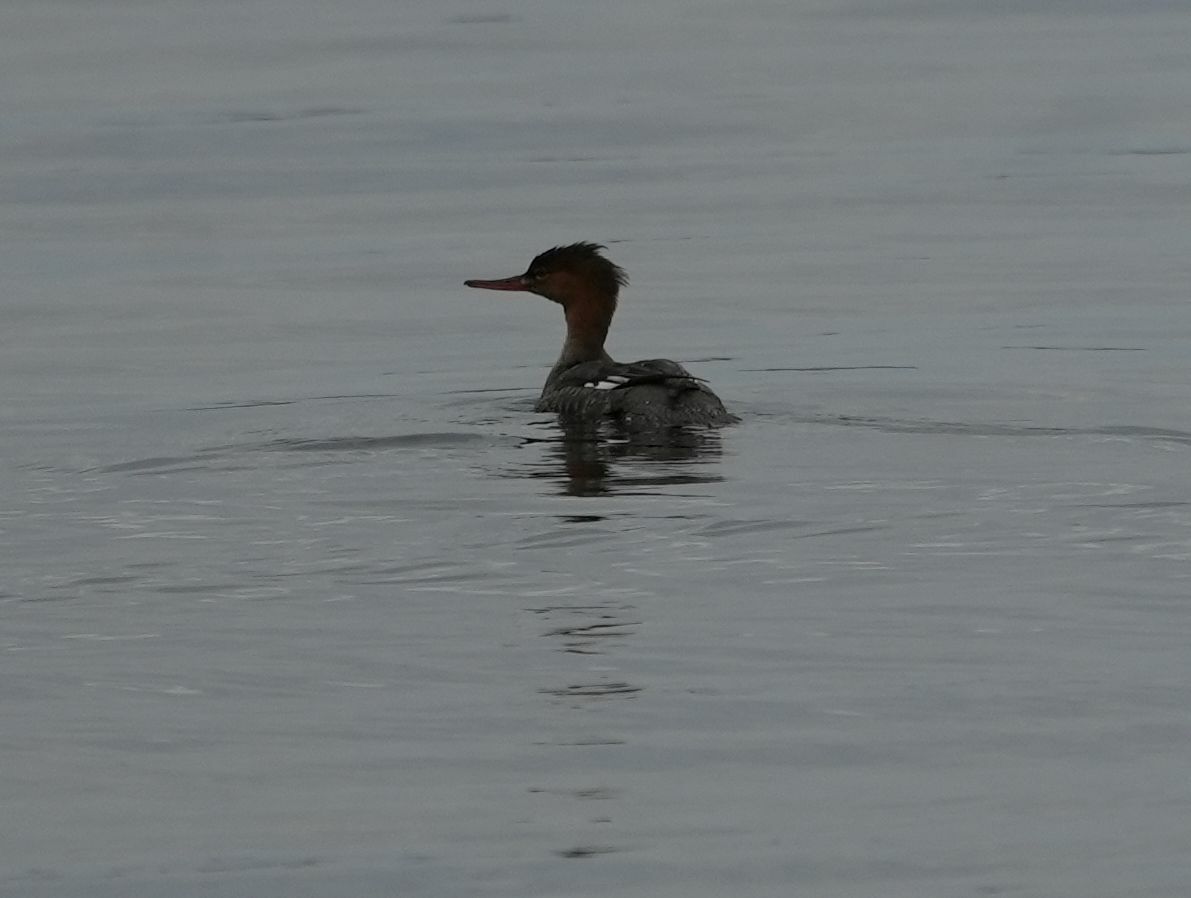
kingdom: Animalia
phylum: Chordata
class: Aves
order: Anseriformes
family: Anatidae
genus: Mergus
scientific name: Mergus serrator
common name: Red-breasted merganser
